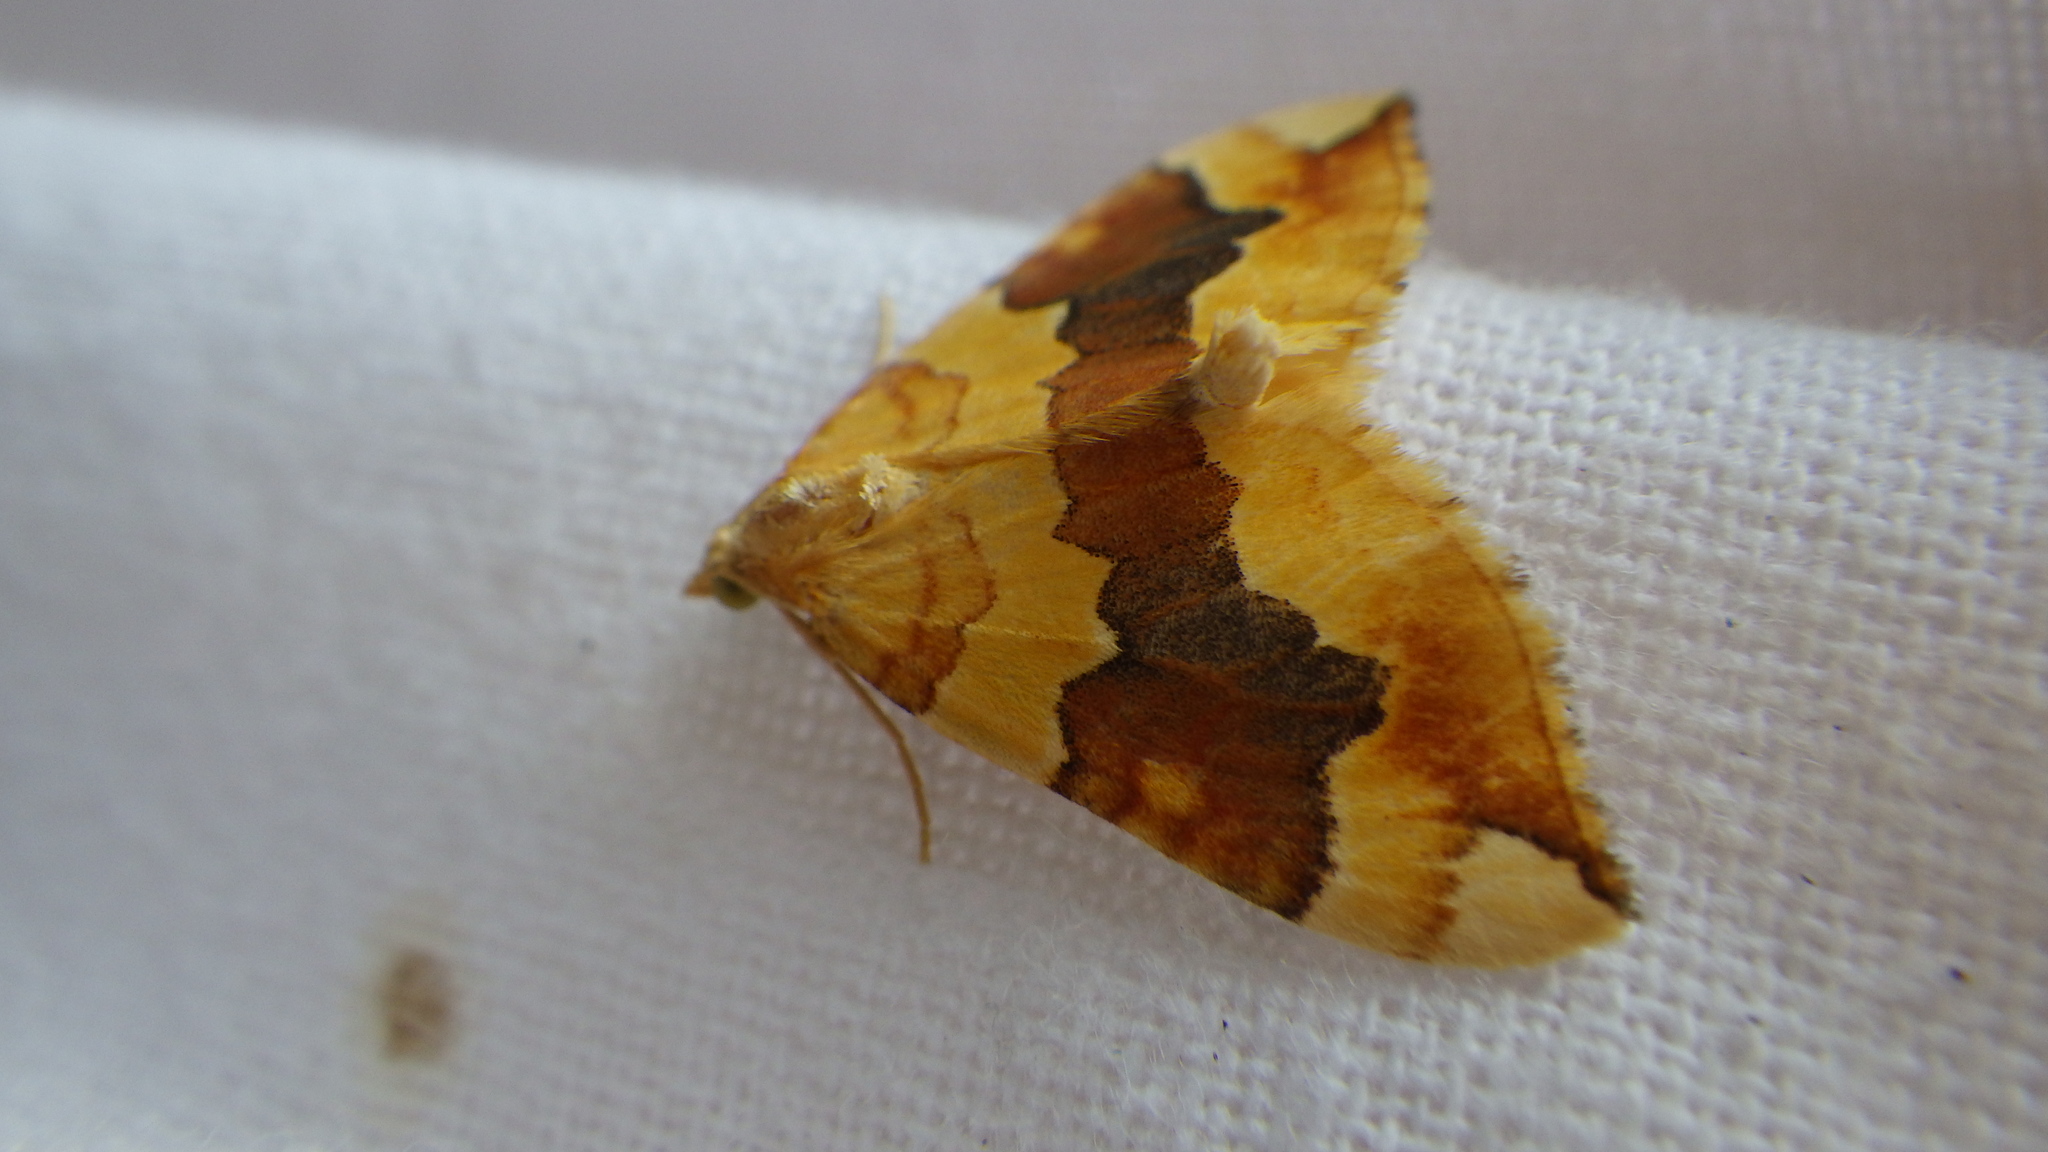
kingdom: Animalia
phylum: Arthropoda
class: Insecta
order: Lepidoptera
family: Geometridae
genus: Cidaria
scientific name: Cidaria fulvata
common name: Barred yellow
